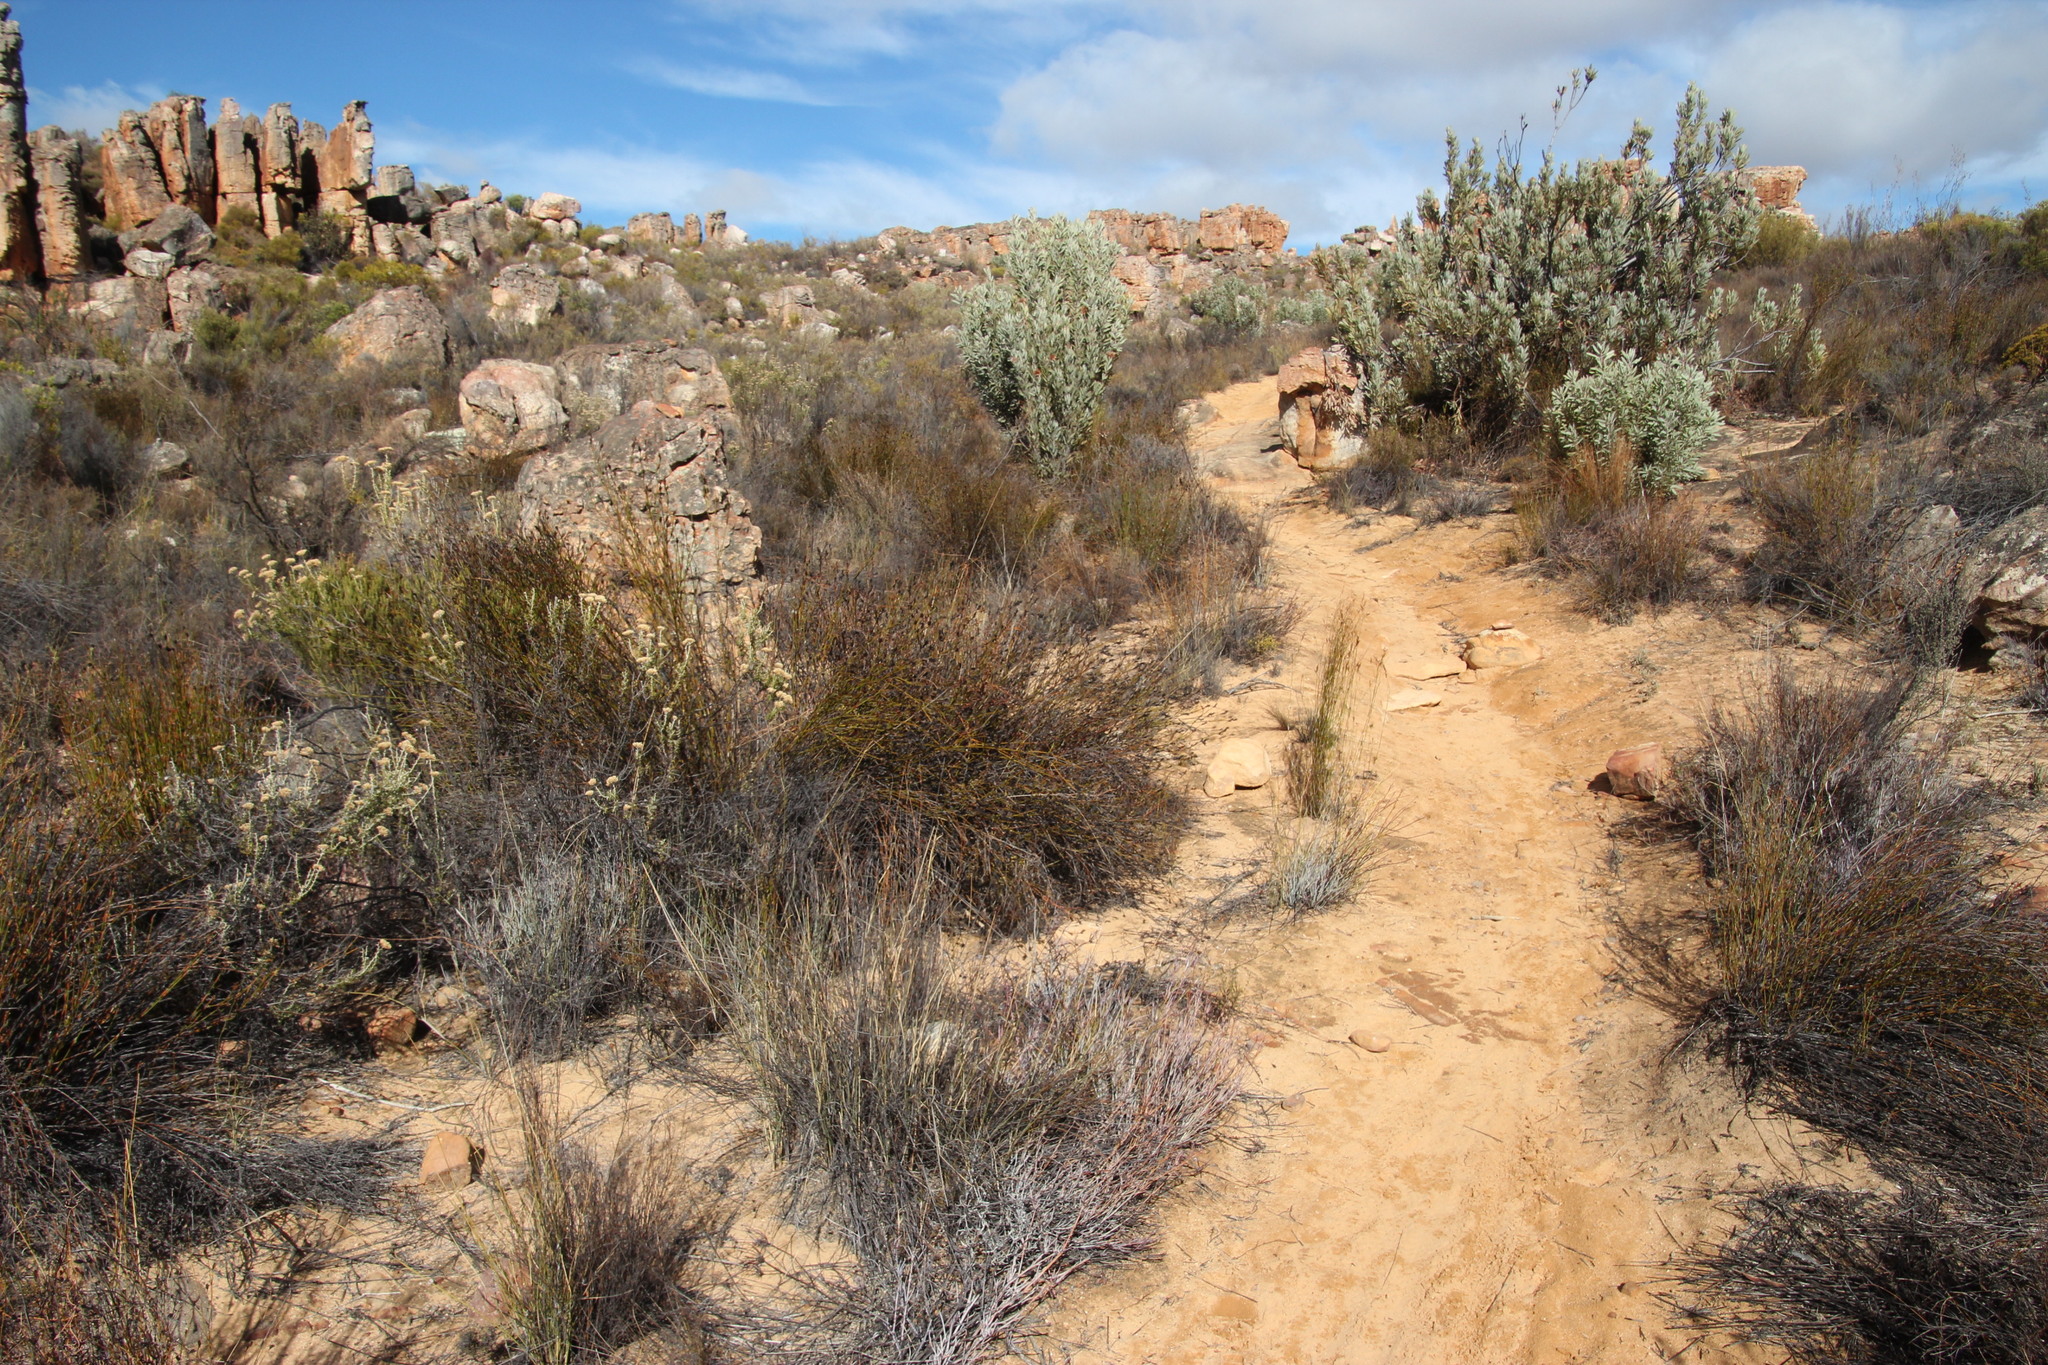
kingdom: Plantae
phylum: Tracheophyta
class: Magnoliopsida
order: Apiales
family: Apiaceae
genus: Centella
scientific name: Centella glauca
